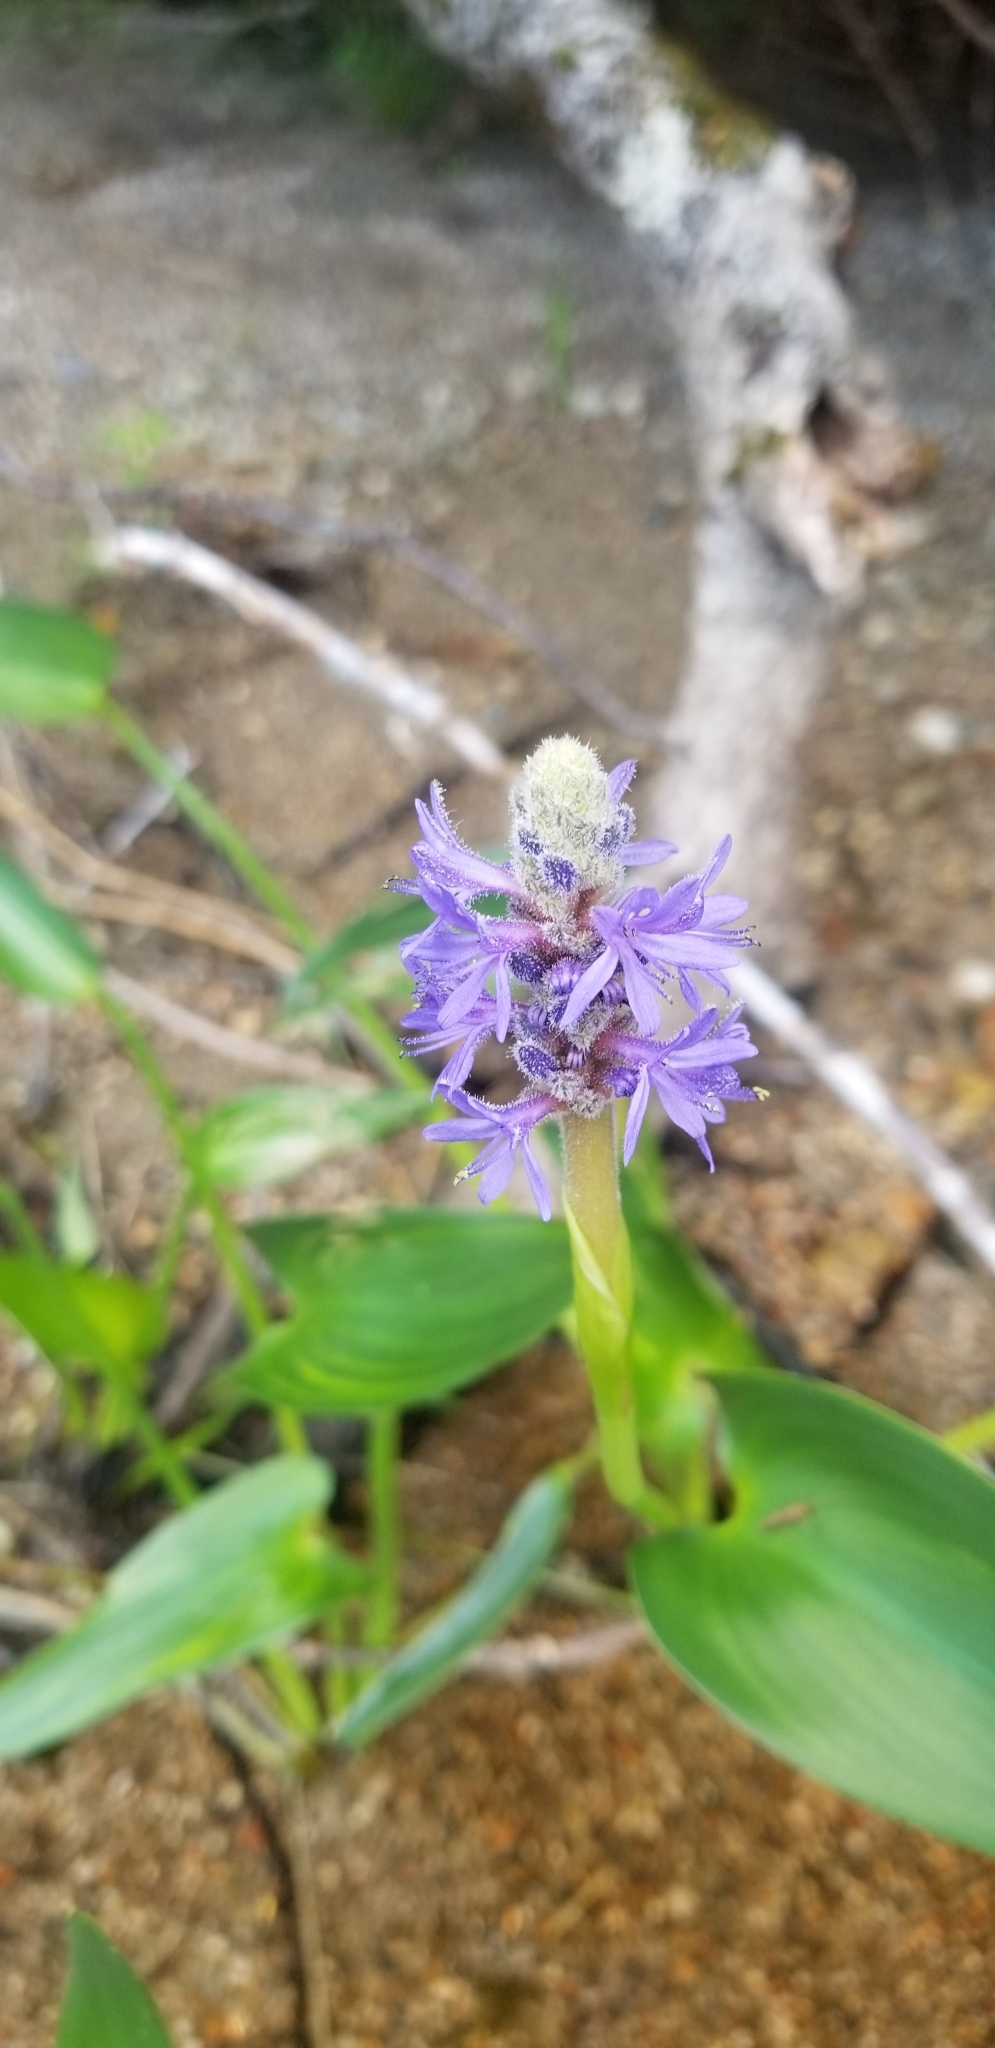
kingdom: Plantae
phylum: Tracheophyta
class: Liliopsida
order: Commelinales
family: Pontederiaceae
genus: Pontederia
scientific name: Pontederia cordata
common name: Pickerelweed
